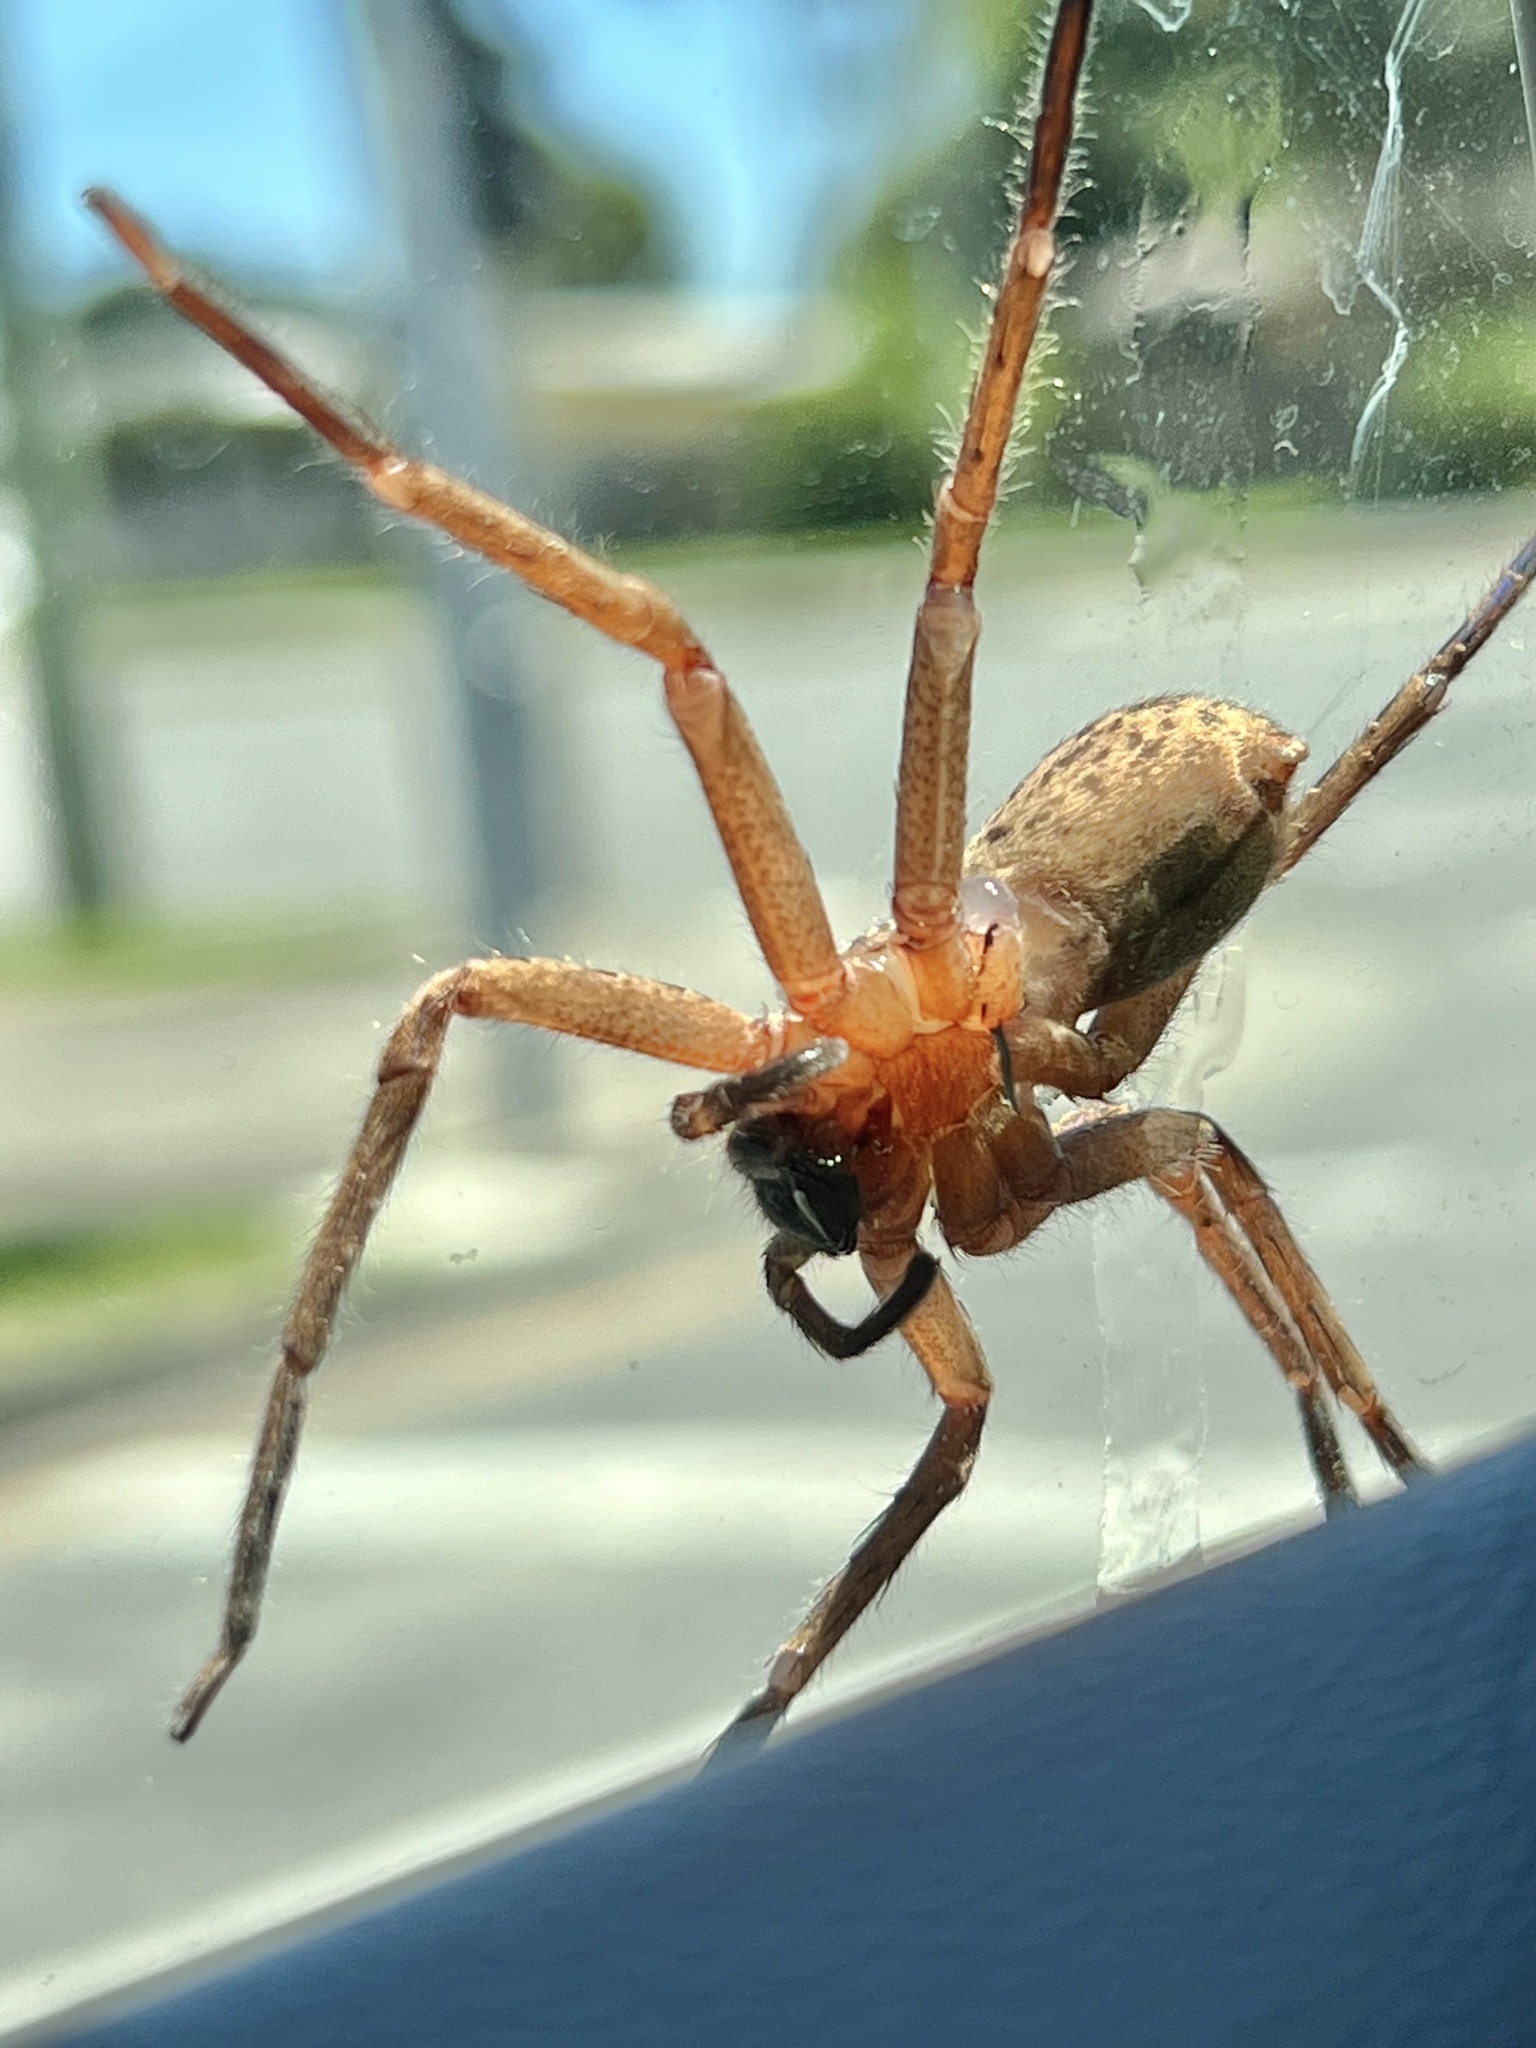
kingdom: Animalia
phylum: Arthropoda
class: Arachnida
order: Araneae
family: Sparassidae
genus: Heteropoda
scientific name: Heteropoda jugulans
